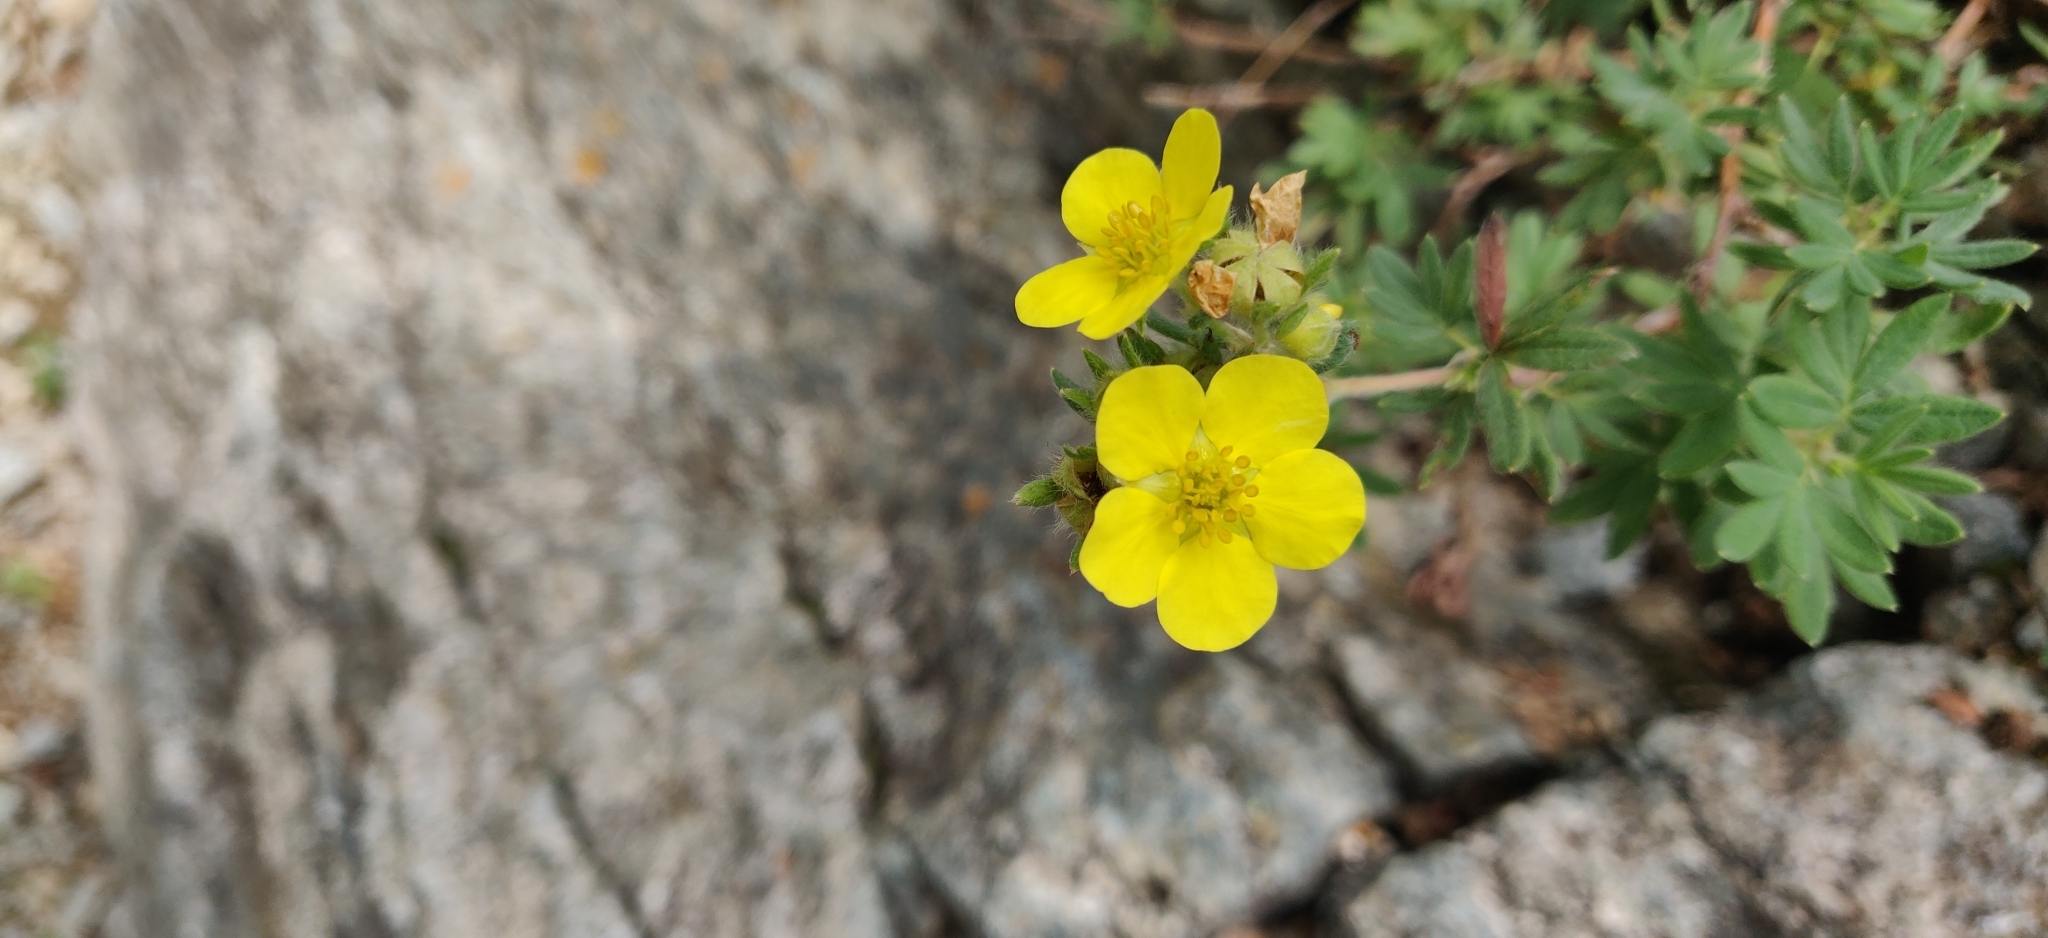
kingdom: Plantae
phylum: Tracheophyta
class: Magnoliopsida
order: Rosales
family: Rosaceae
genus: Dasiphora
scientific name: Dasiphora fruticosa
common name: Shrubby cinquefoil
